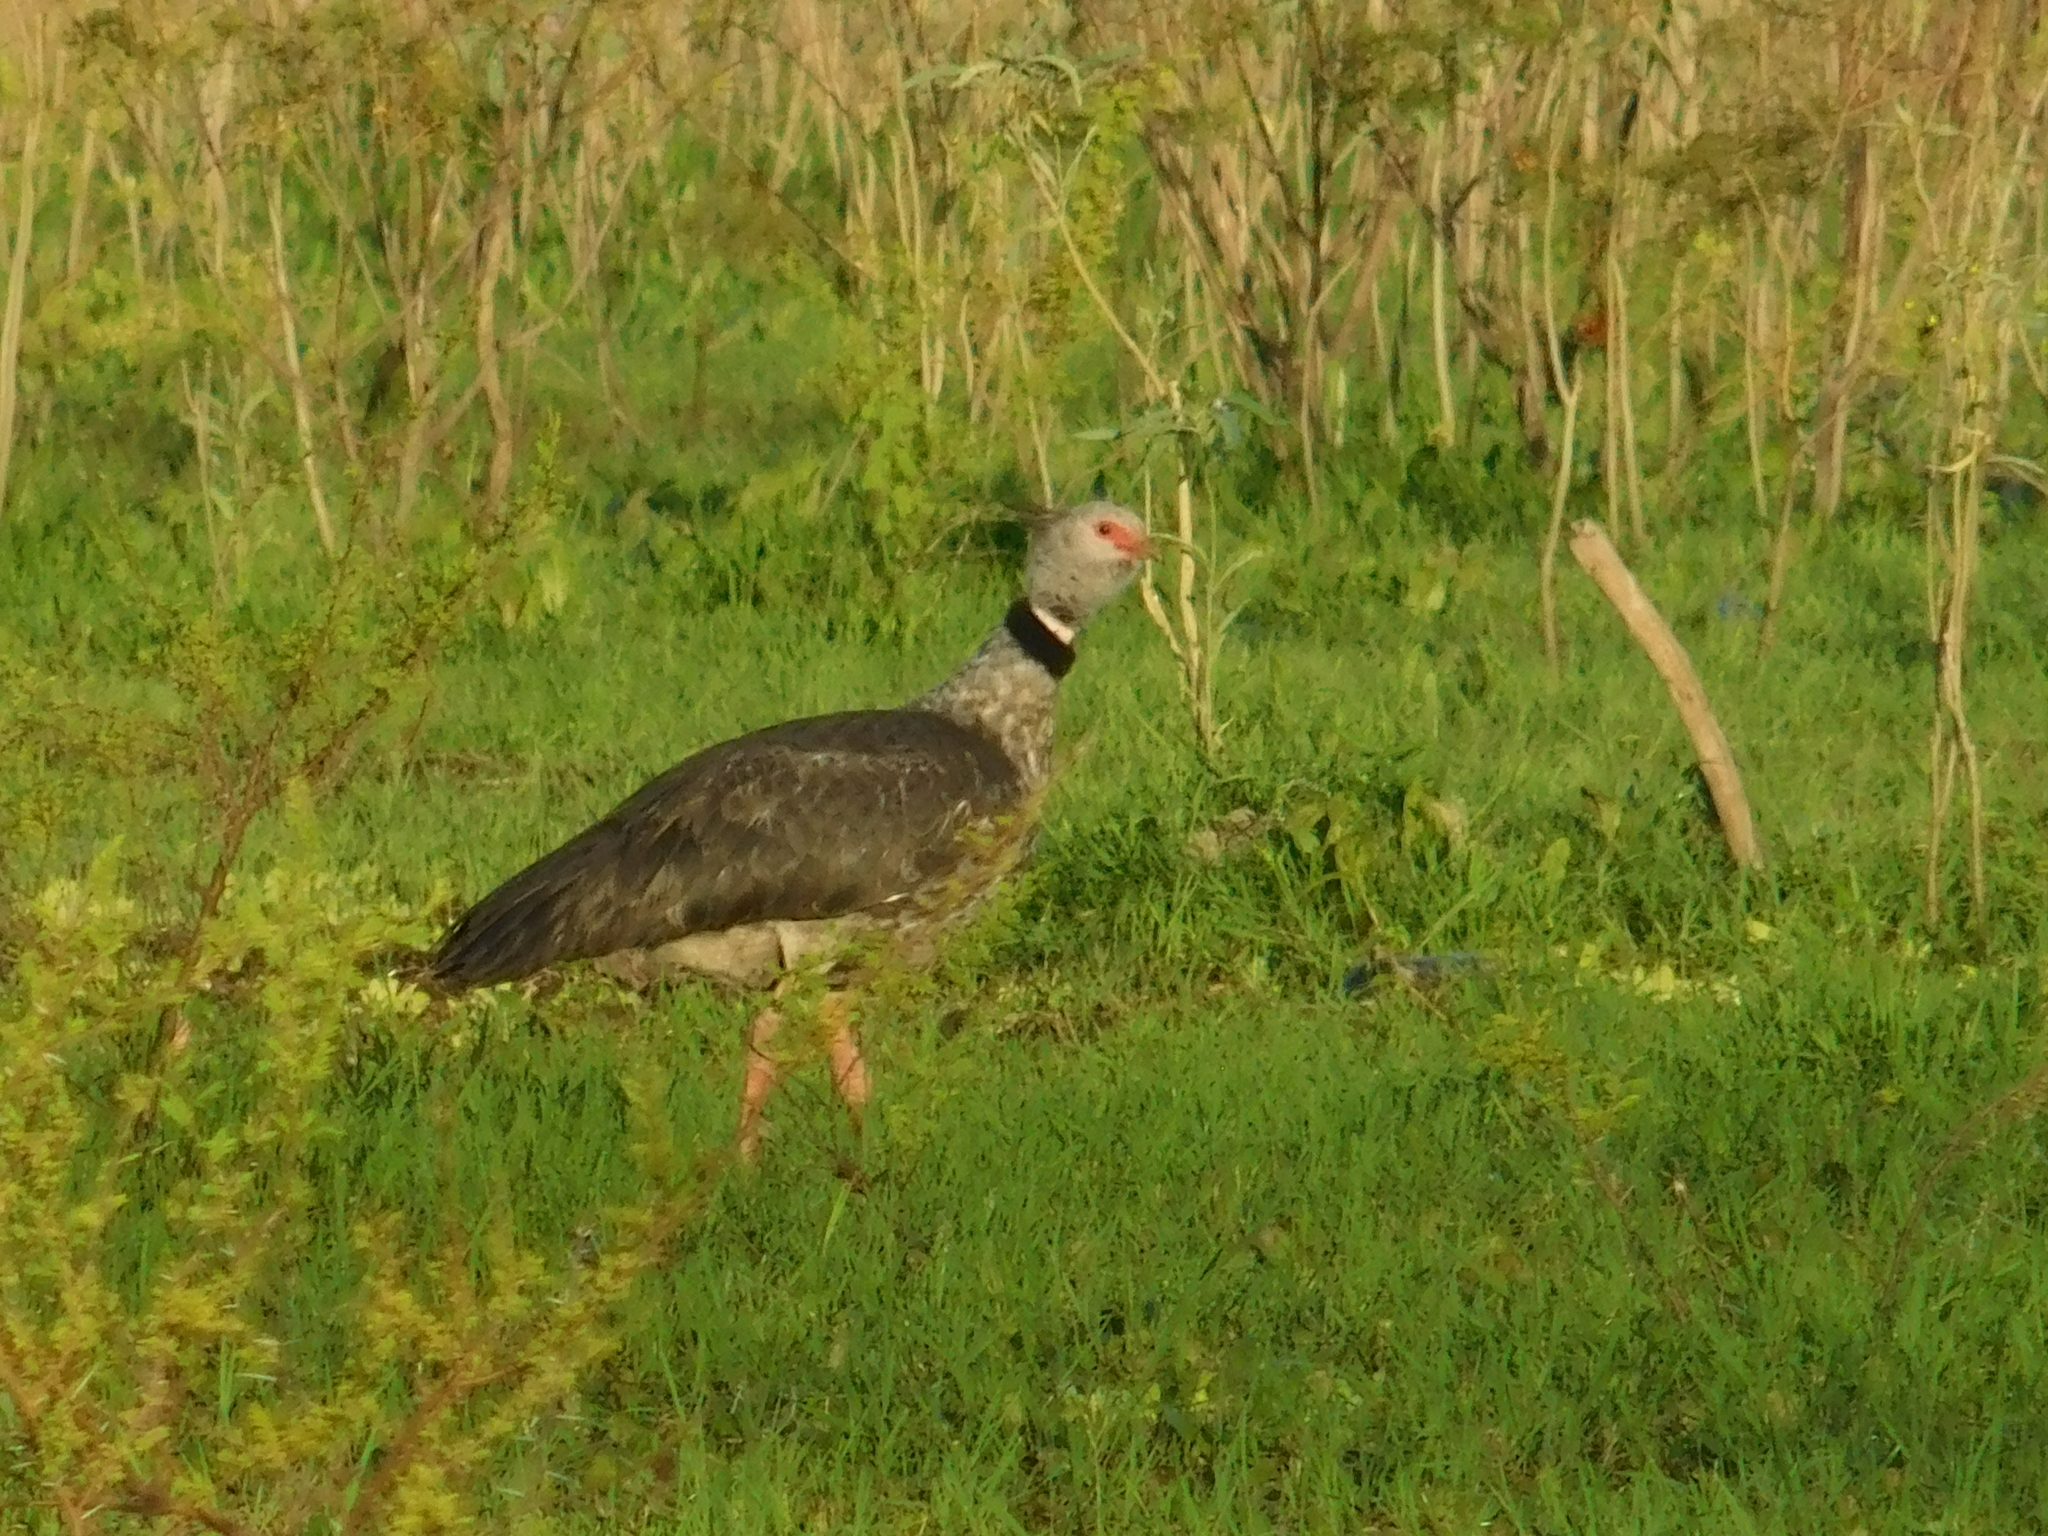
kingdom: Animalia
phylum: Chordata
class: Aves
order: Anseriformes
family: Anhimidae
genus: Chauna
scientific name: Chauna torquata
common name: Southern screamer
